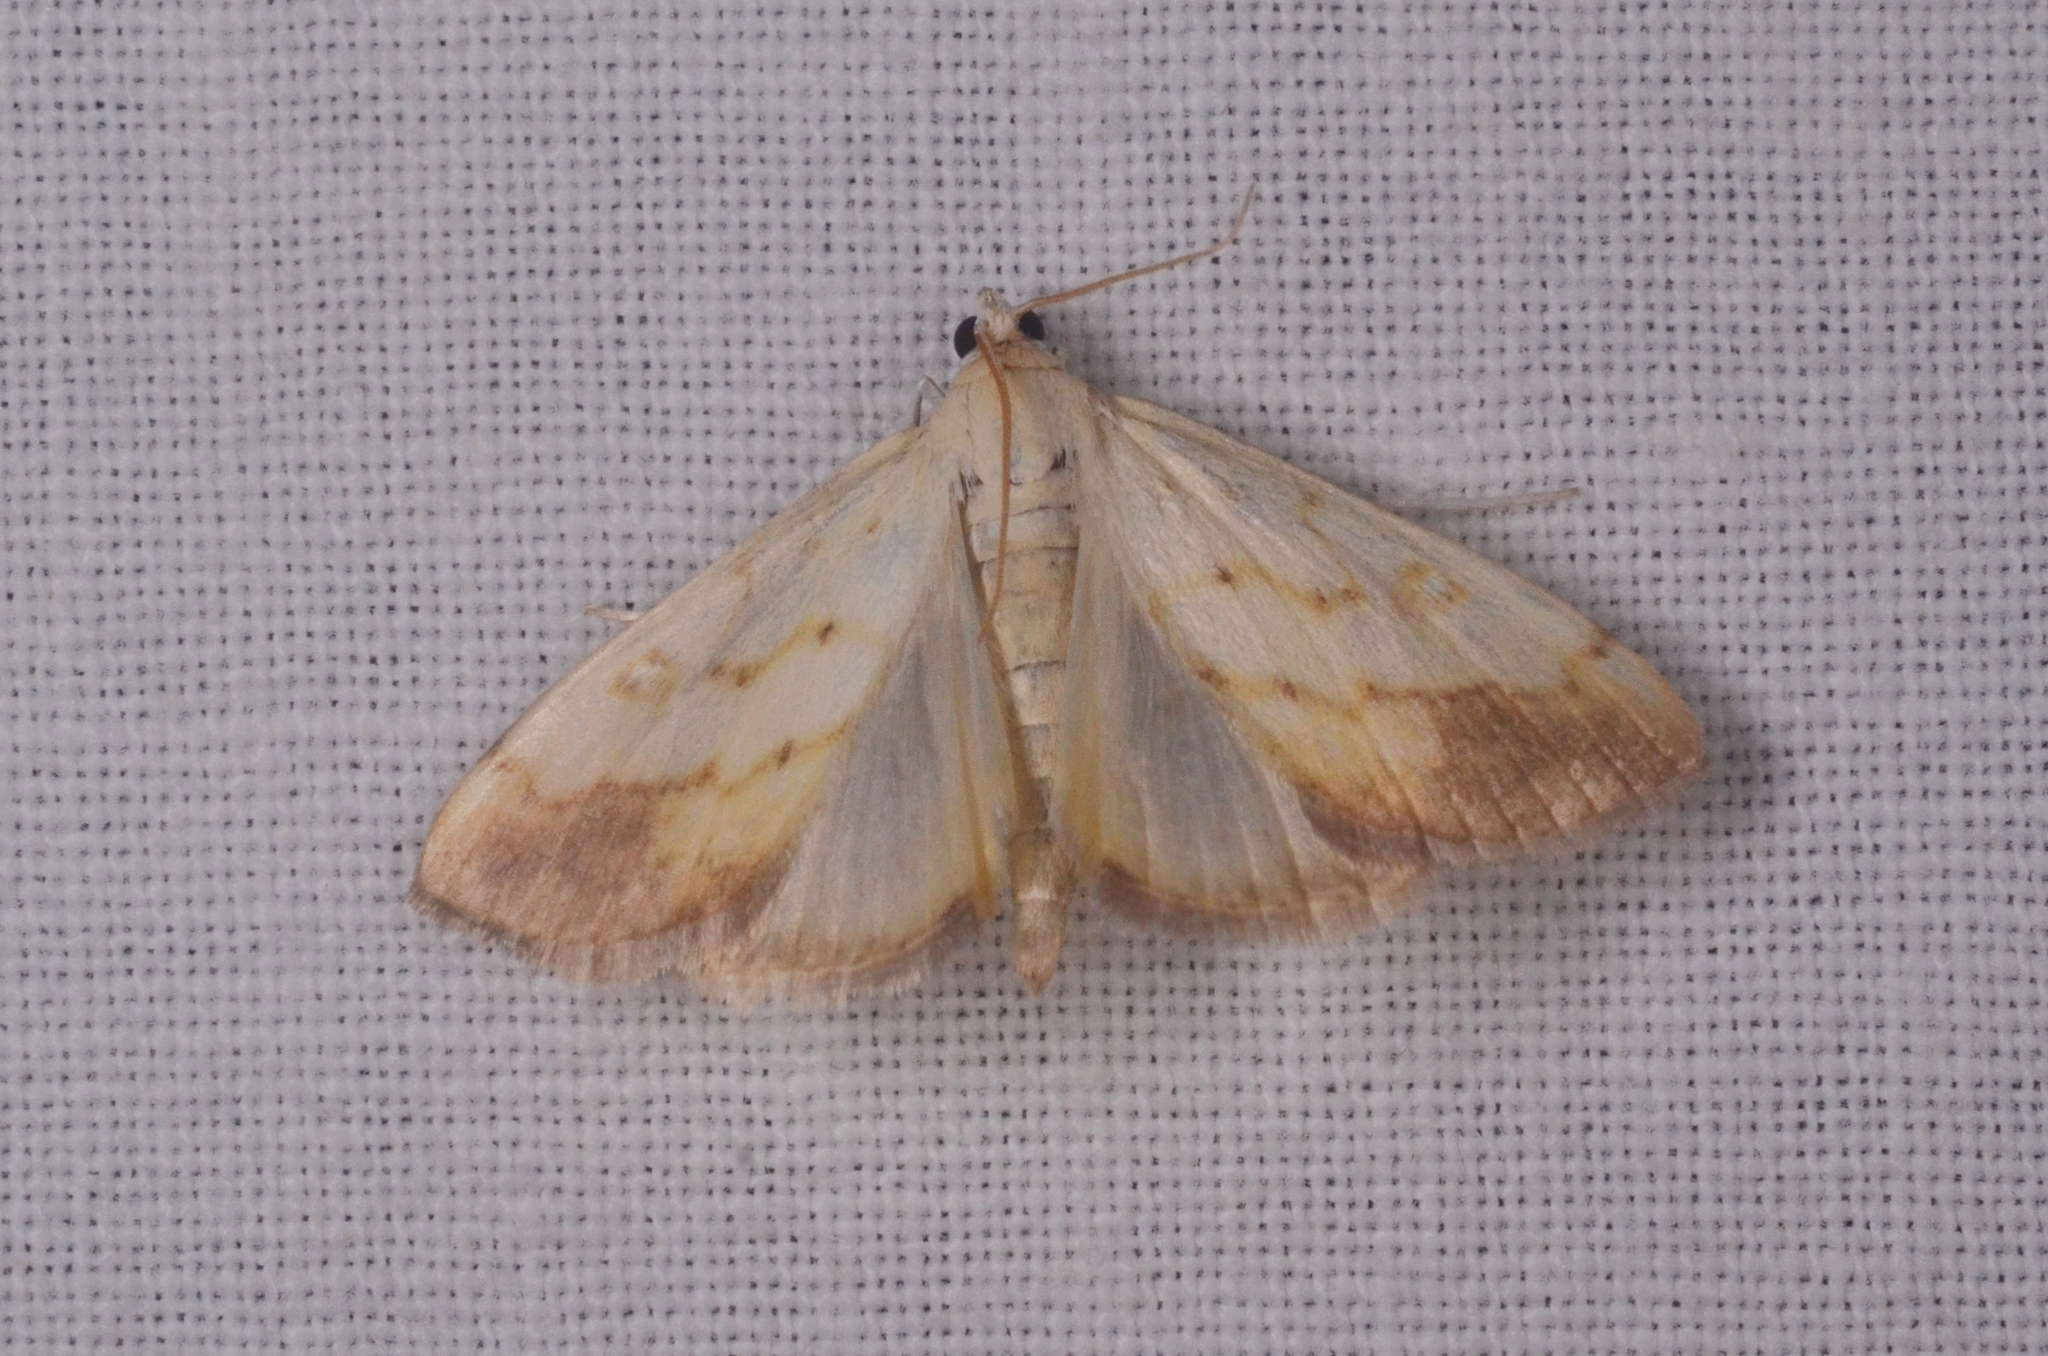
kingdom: Animalia
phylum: Arthropoda
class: Insecta
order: Lepidoptera
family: Crambidae
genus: Evergestis
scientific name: Evergestis extimalis
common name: Marbled yellow pearl
